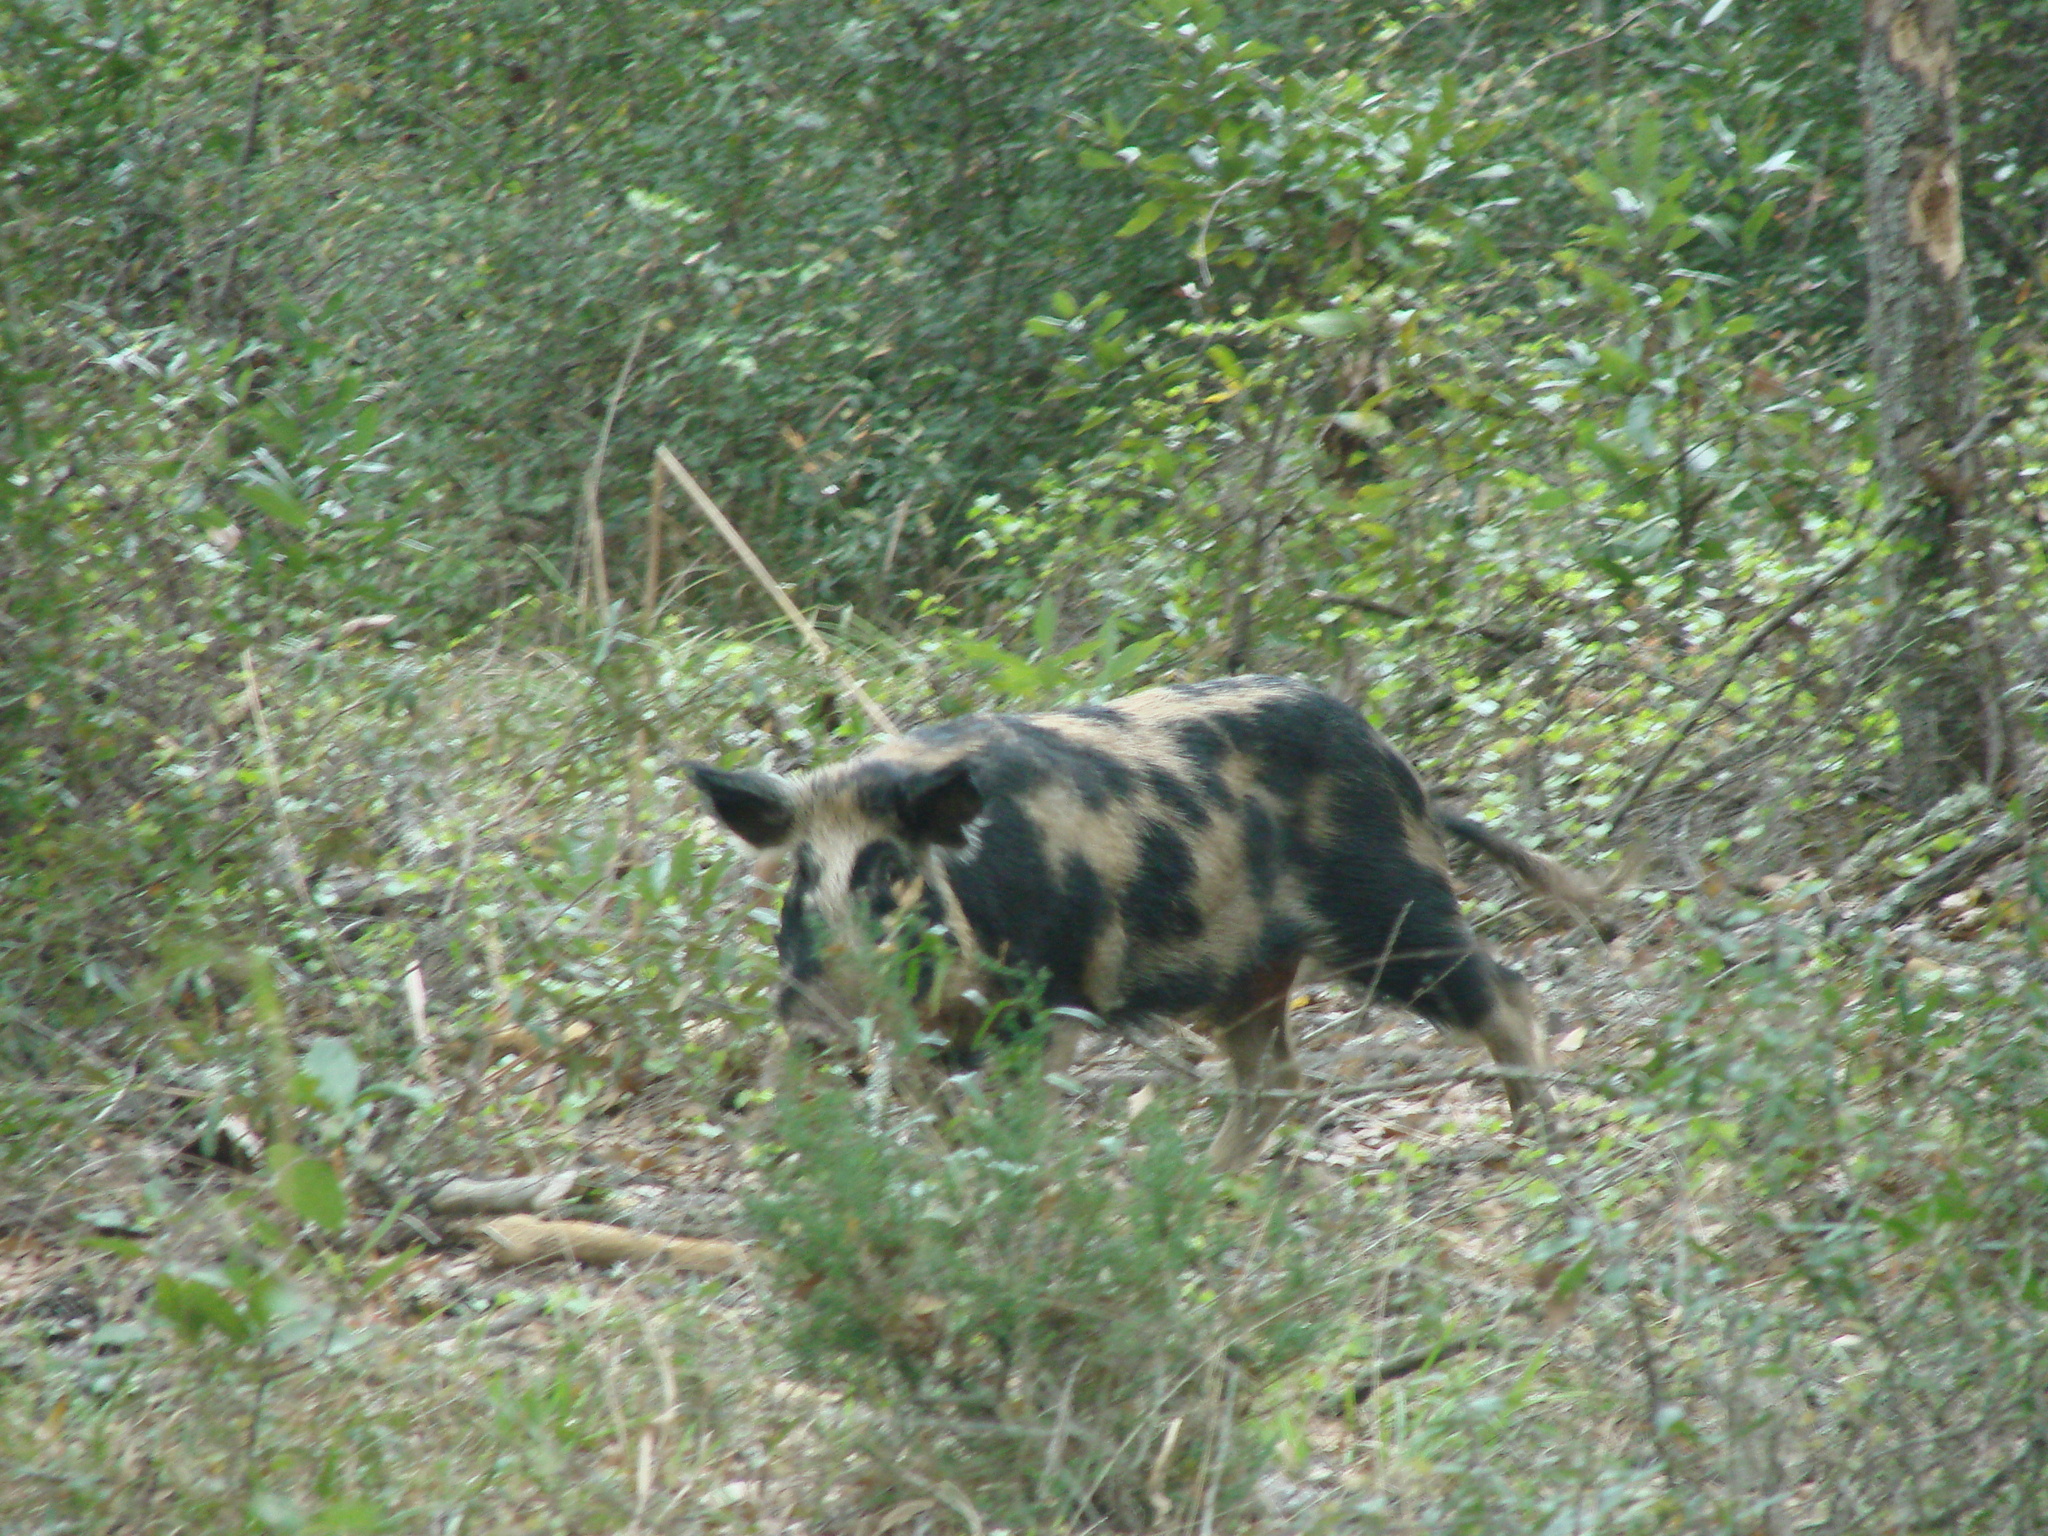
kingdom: Animalia
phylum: Chordata
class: Mammalia
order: Artiodactyla
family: Suidae
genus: Sus
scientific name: Sus scrofa
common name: Wild boar
